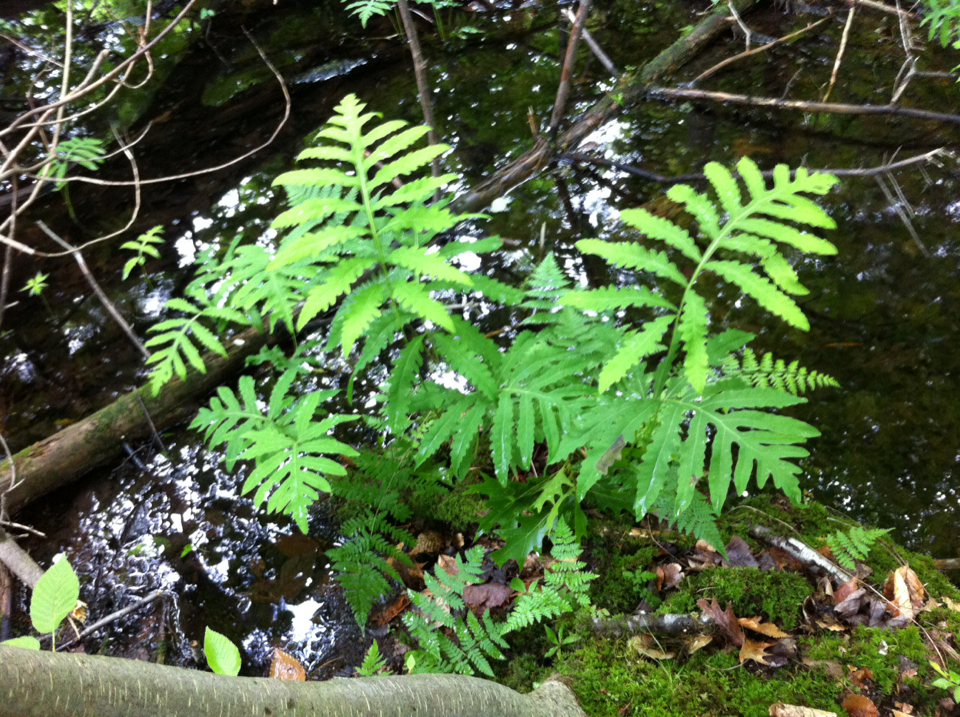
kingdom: Plantae
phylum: Tracheophyta
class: Polypodiopsida
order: Polypodiales
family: Onocleaceae
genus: Onoclea
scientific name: Onoclea sensibilis
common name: Sensitive fern
